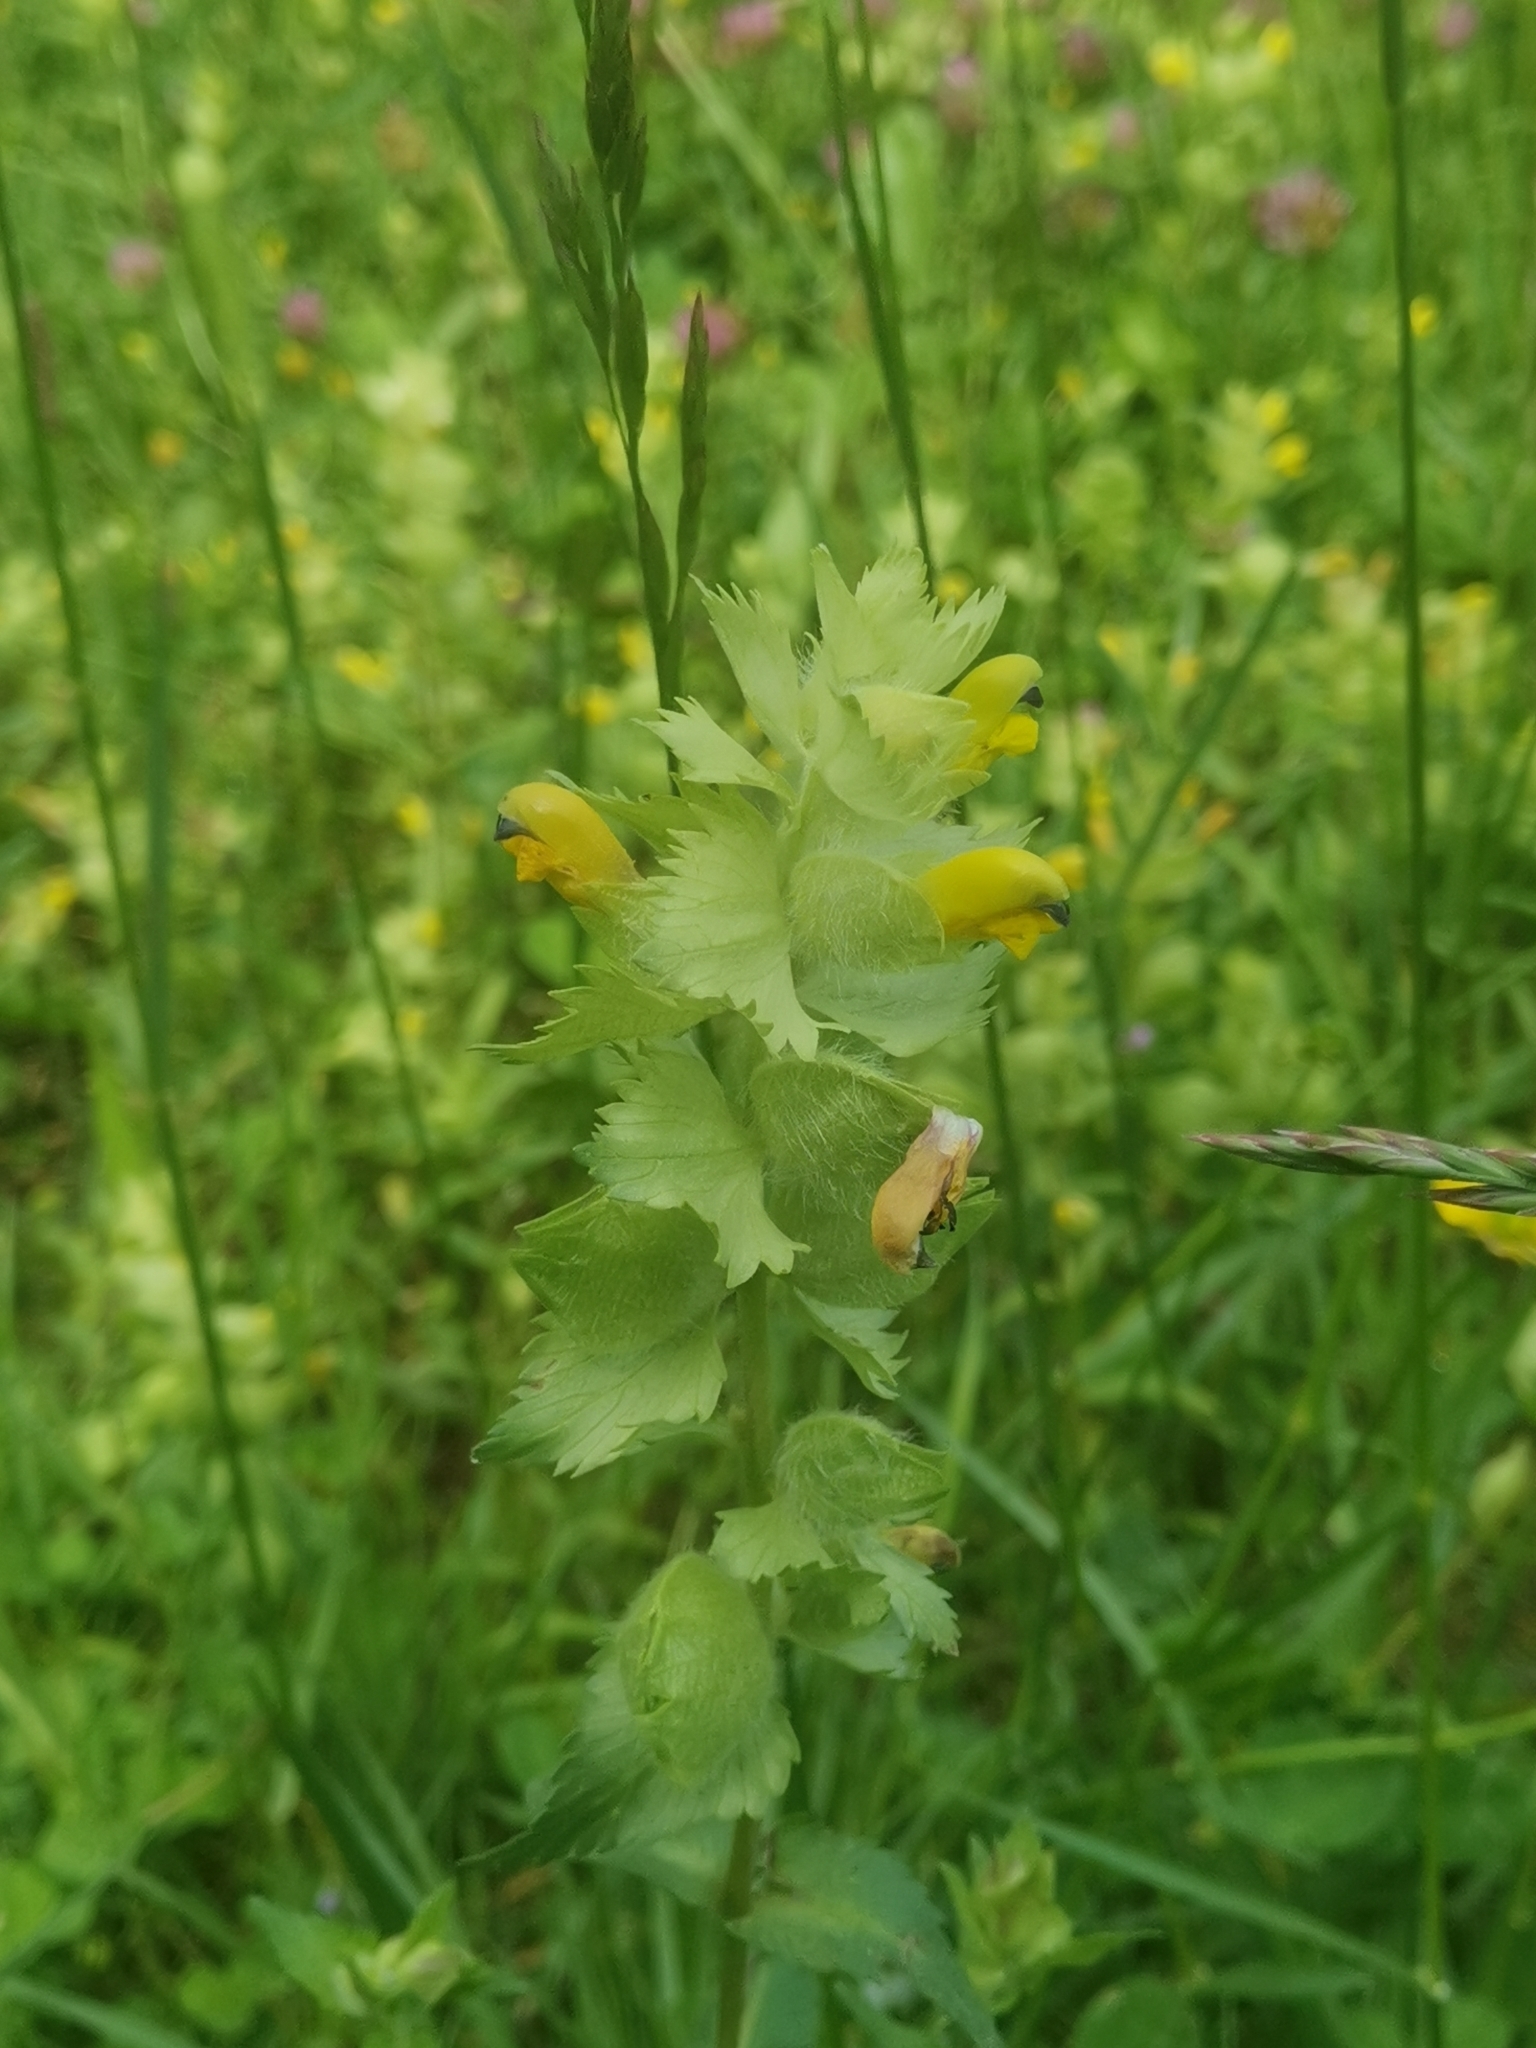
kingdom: Plantae
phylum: Tracheophyta
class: Magnoliopsida
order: Lamiales
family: Orobanchaceae
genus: Rhinanthus
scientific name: Rhinanthus alectorolophus
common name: Greater yellow-rattle
